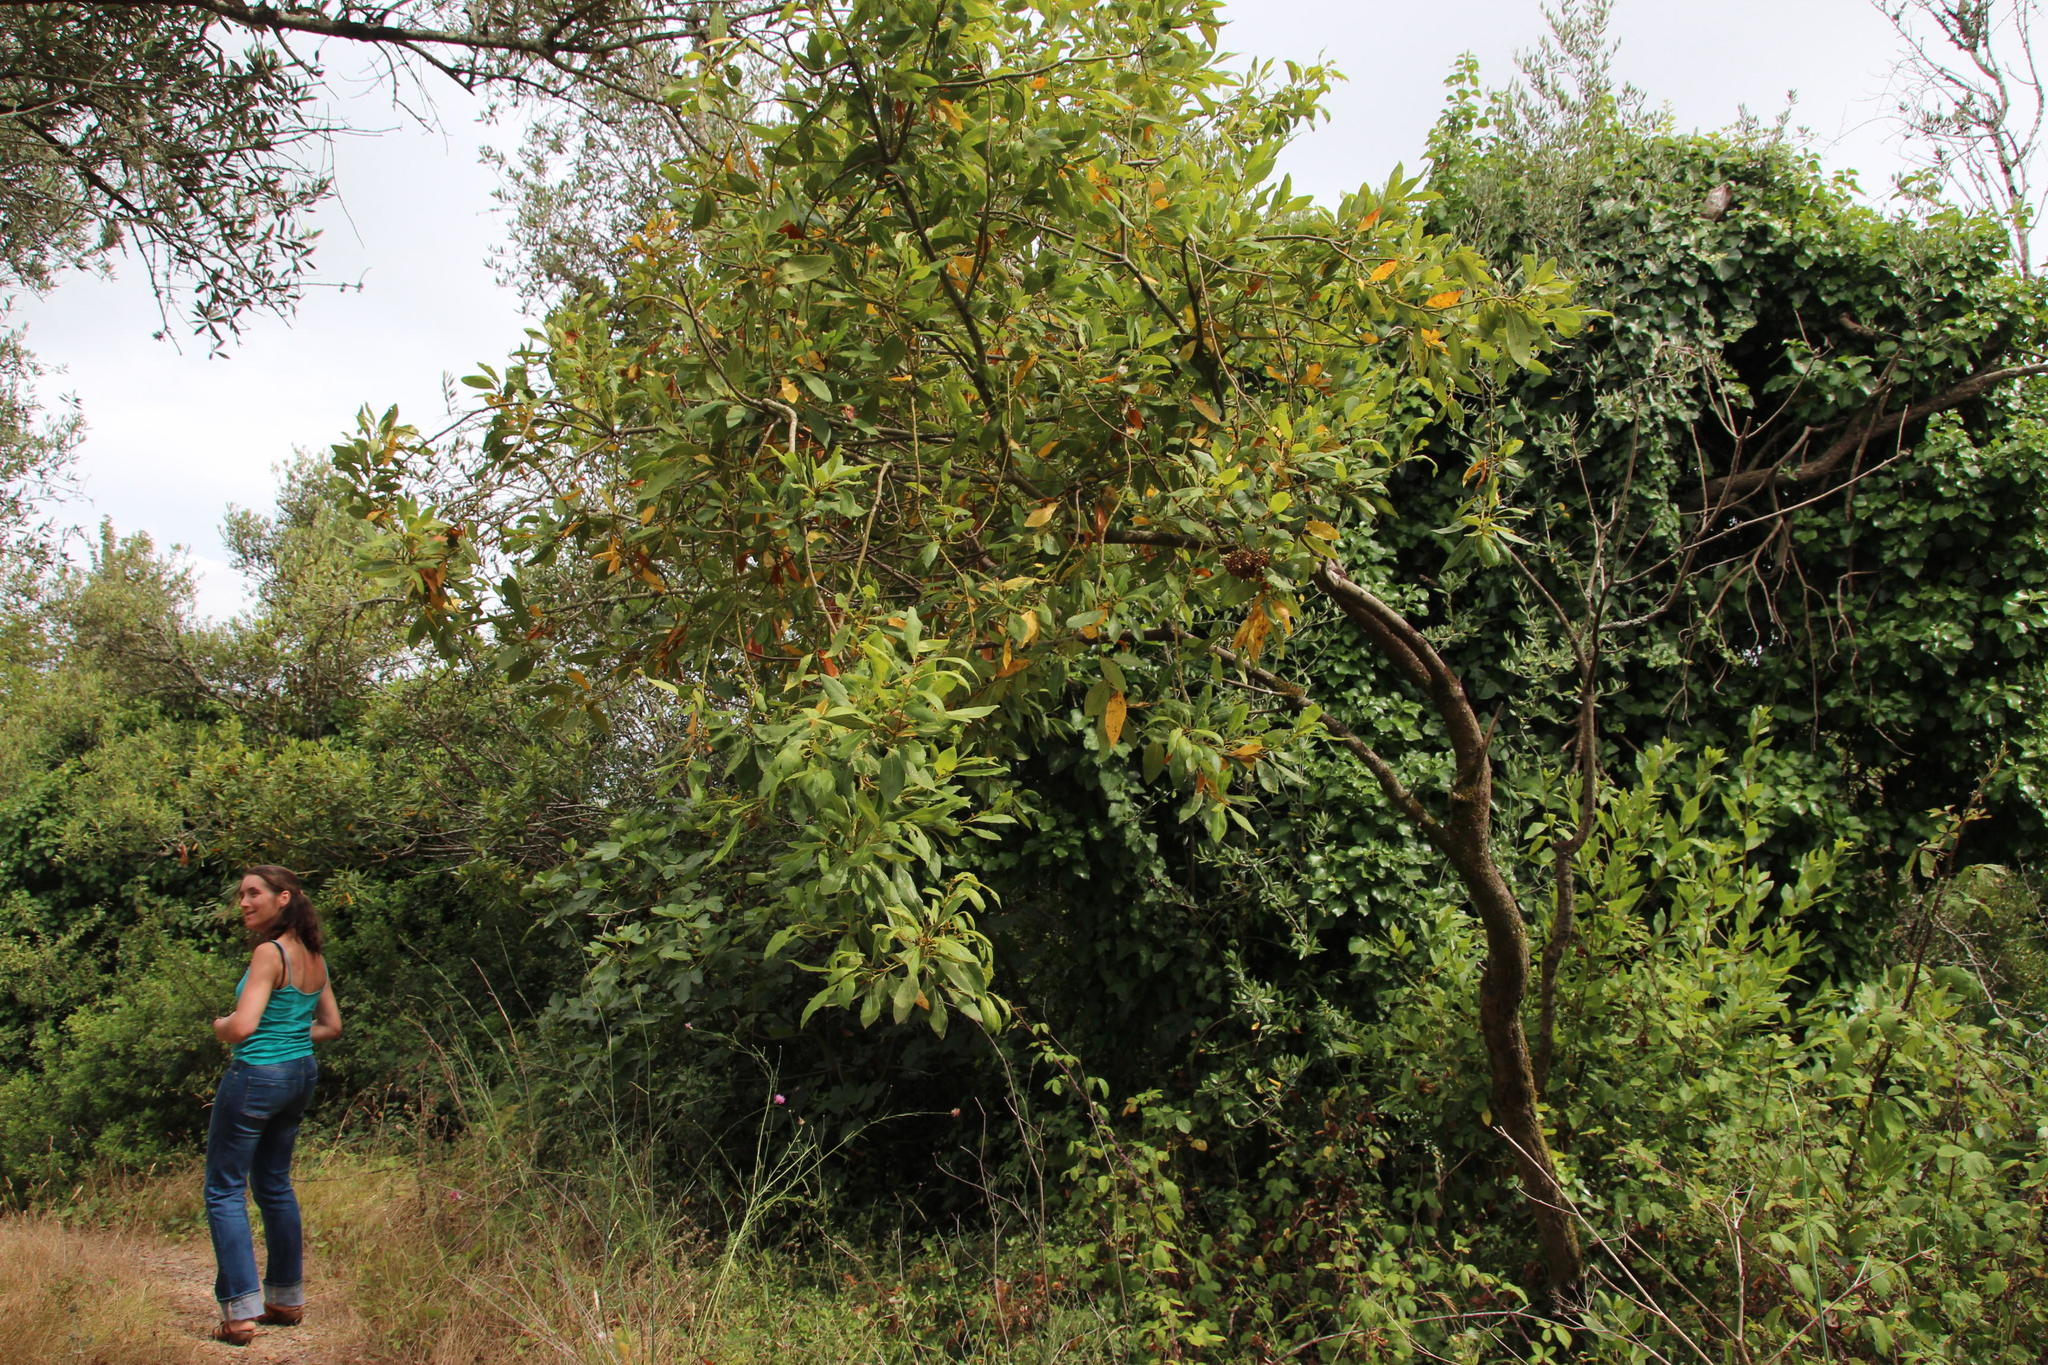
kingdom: Plantae
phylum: Tracheophyta
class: Magnoliopsida
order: Laurales
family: Lauraceae
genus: Laurus
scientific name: Laurus nobilis
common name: Bay
